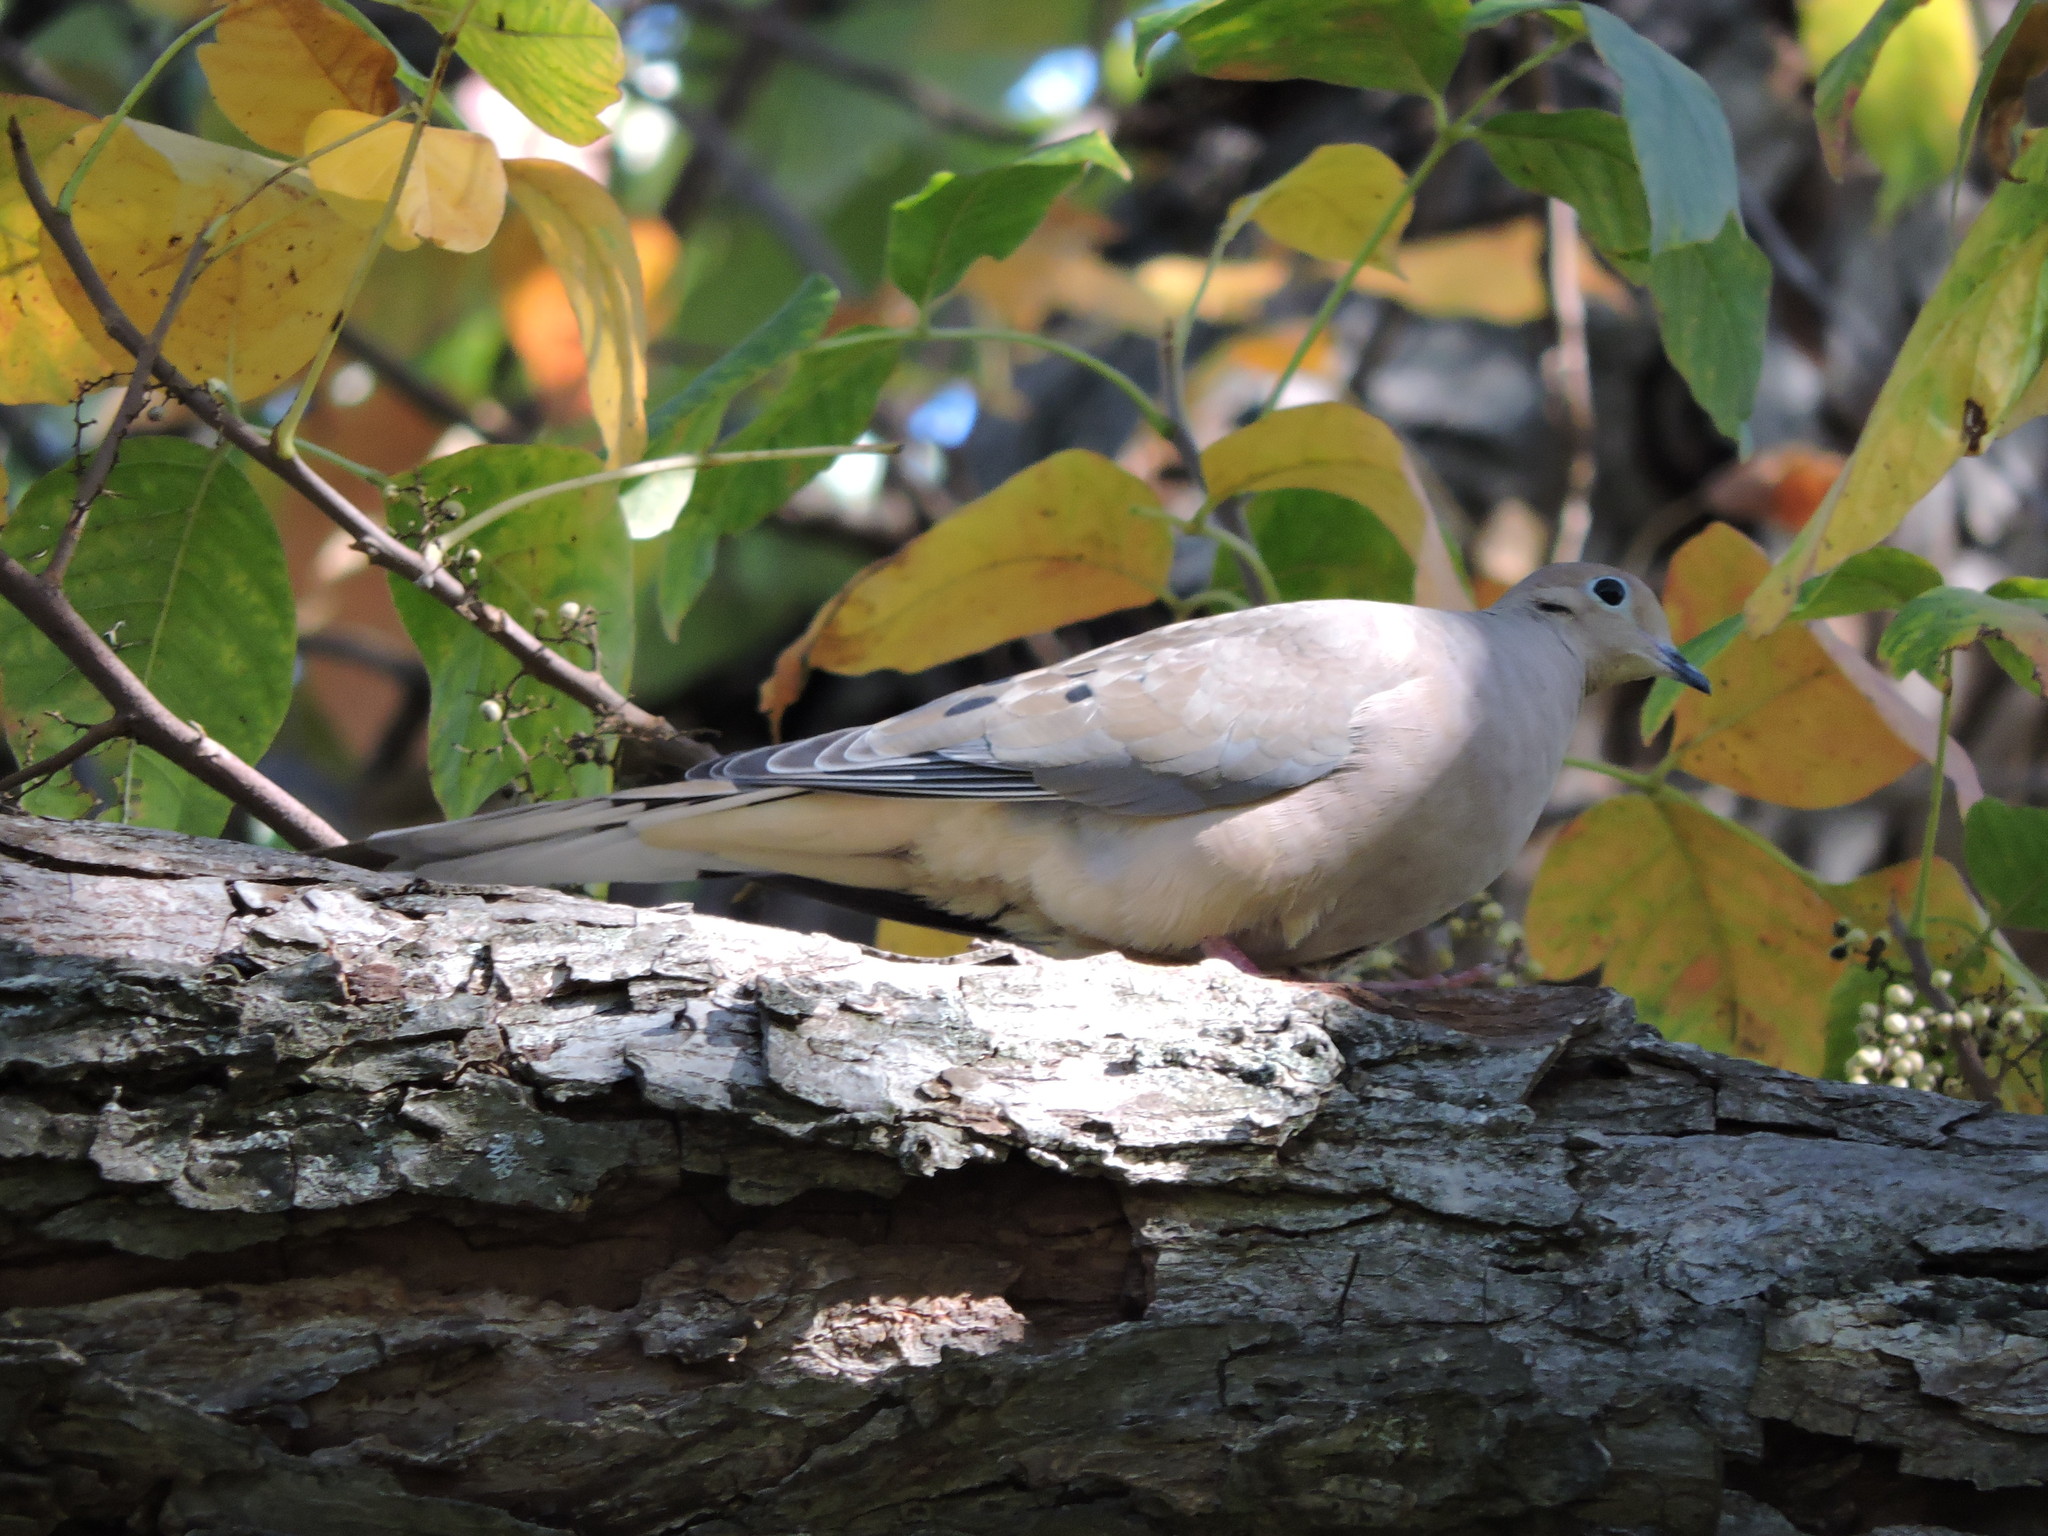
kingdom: Animalia
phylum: Chordata
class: Aves
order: Columbiformes
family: Columbidae
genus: Zenaida
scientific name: Zenaida macroura
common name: Mourning dove
